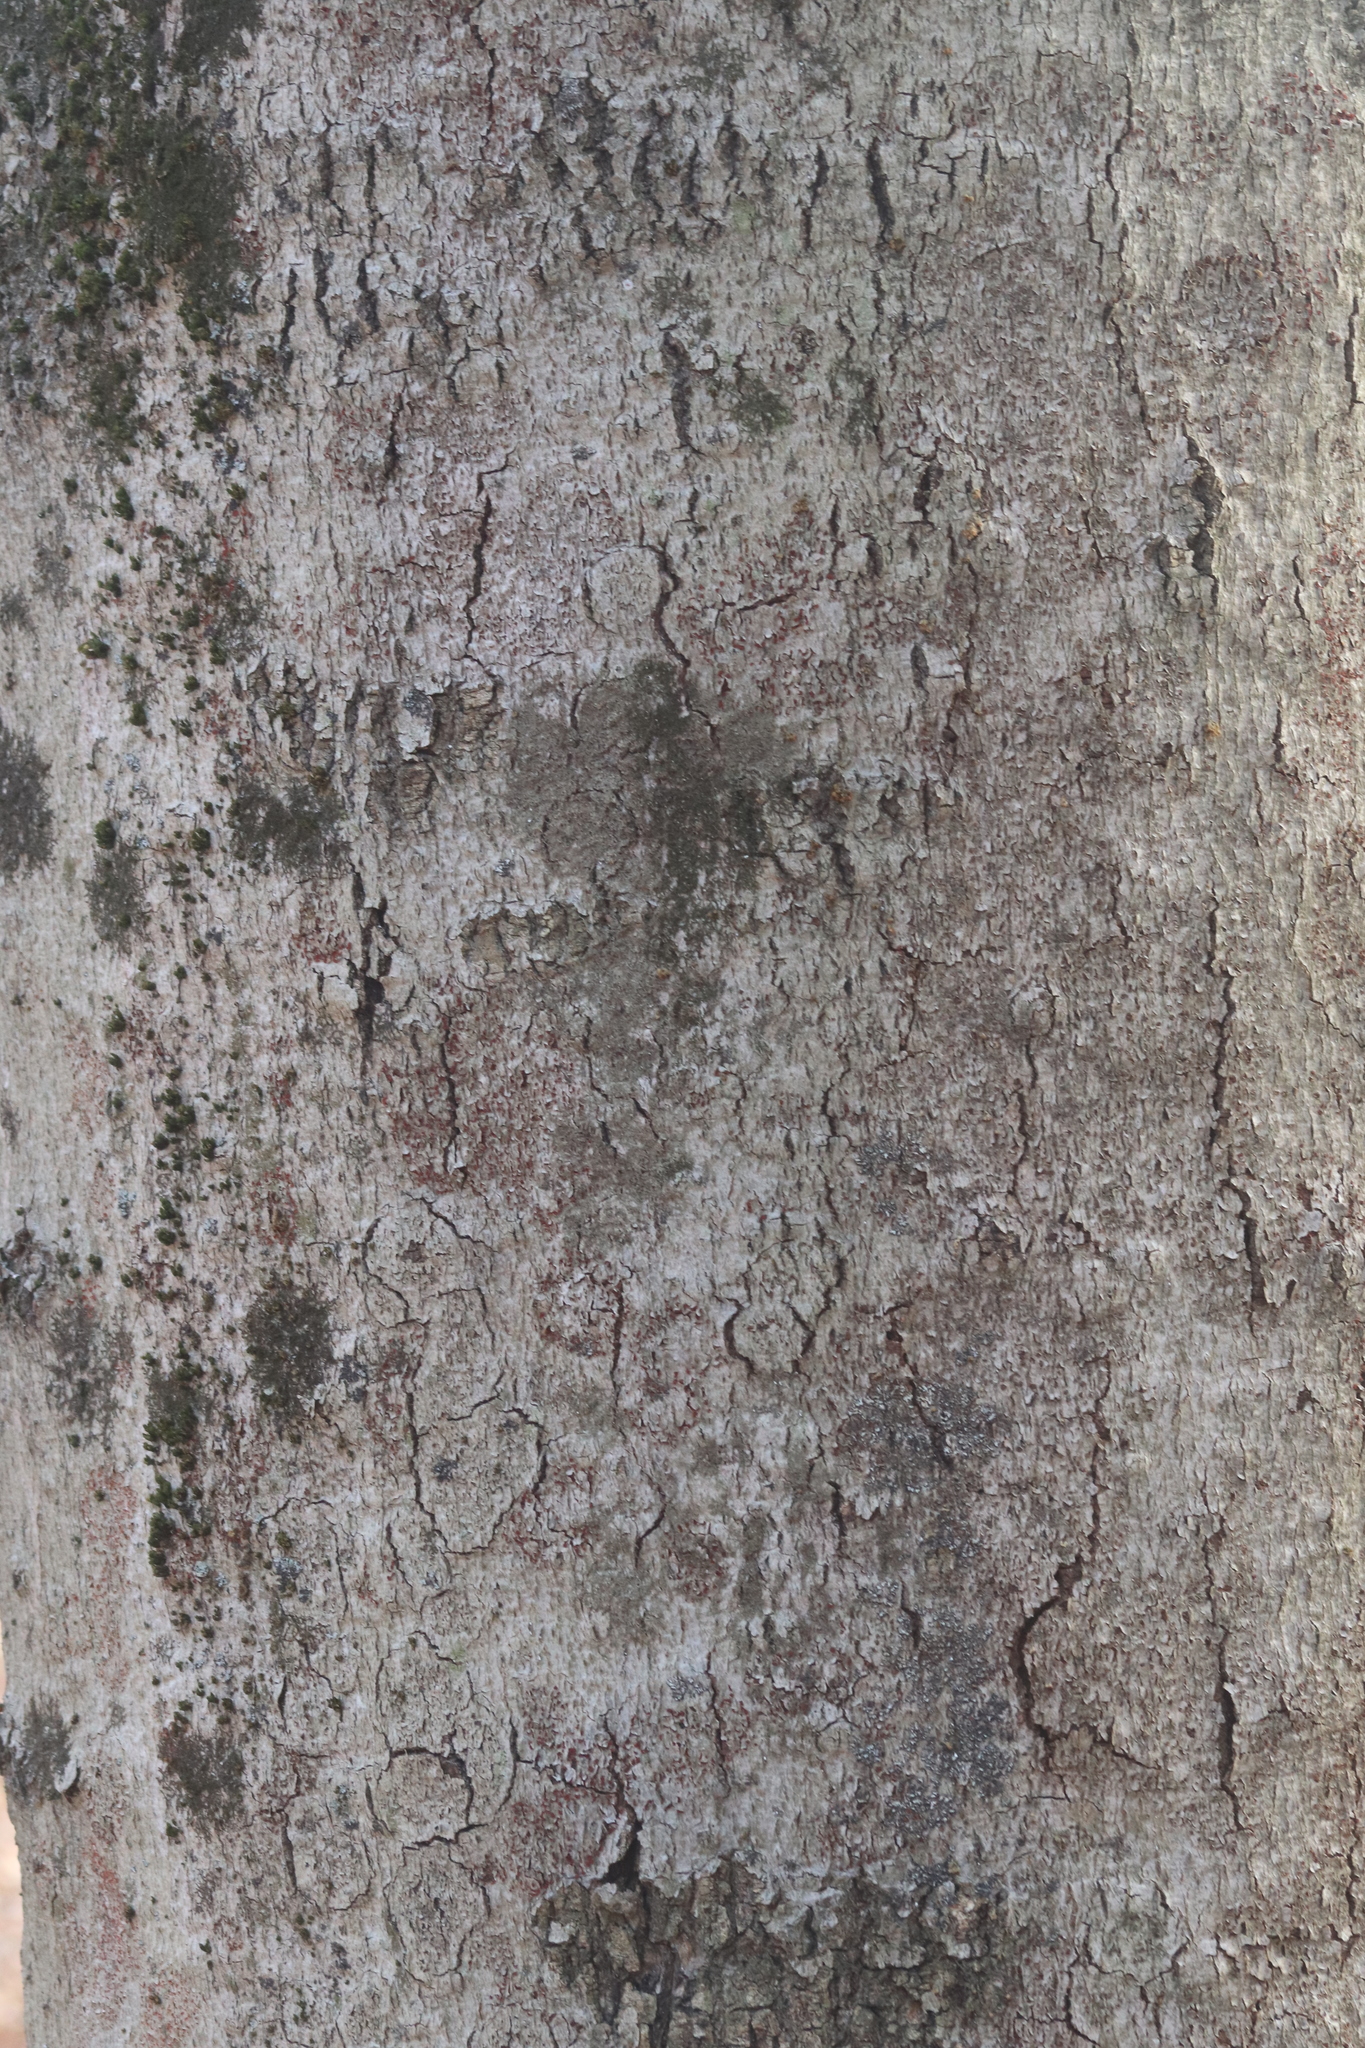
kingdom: Fungi
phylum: Ascomycota
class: Sordariomycetes
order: Hypocreales
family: Nectriaceae
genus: Neonectria
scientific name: Neonectria faginata
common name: Beech bark canker
